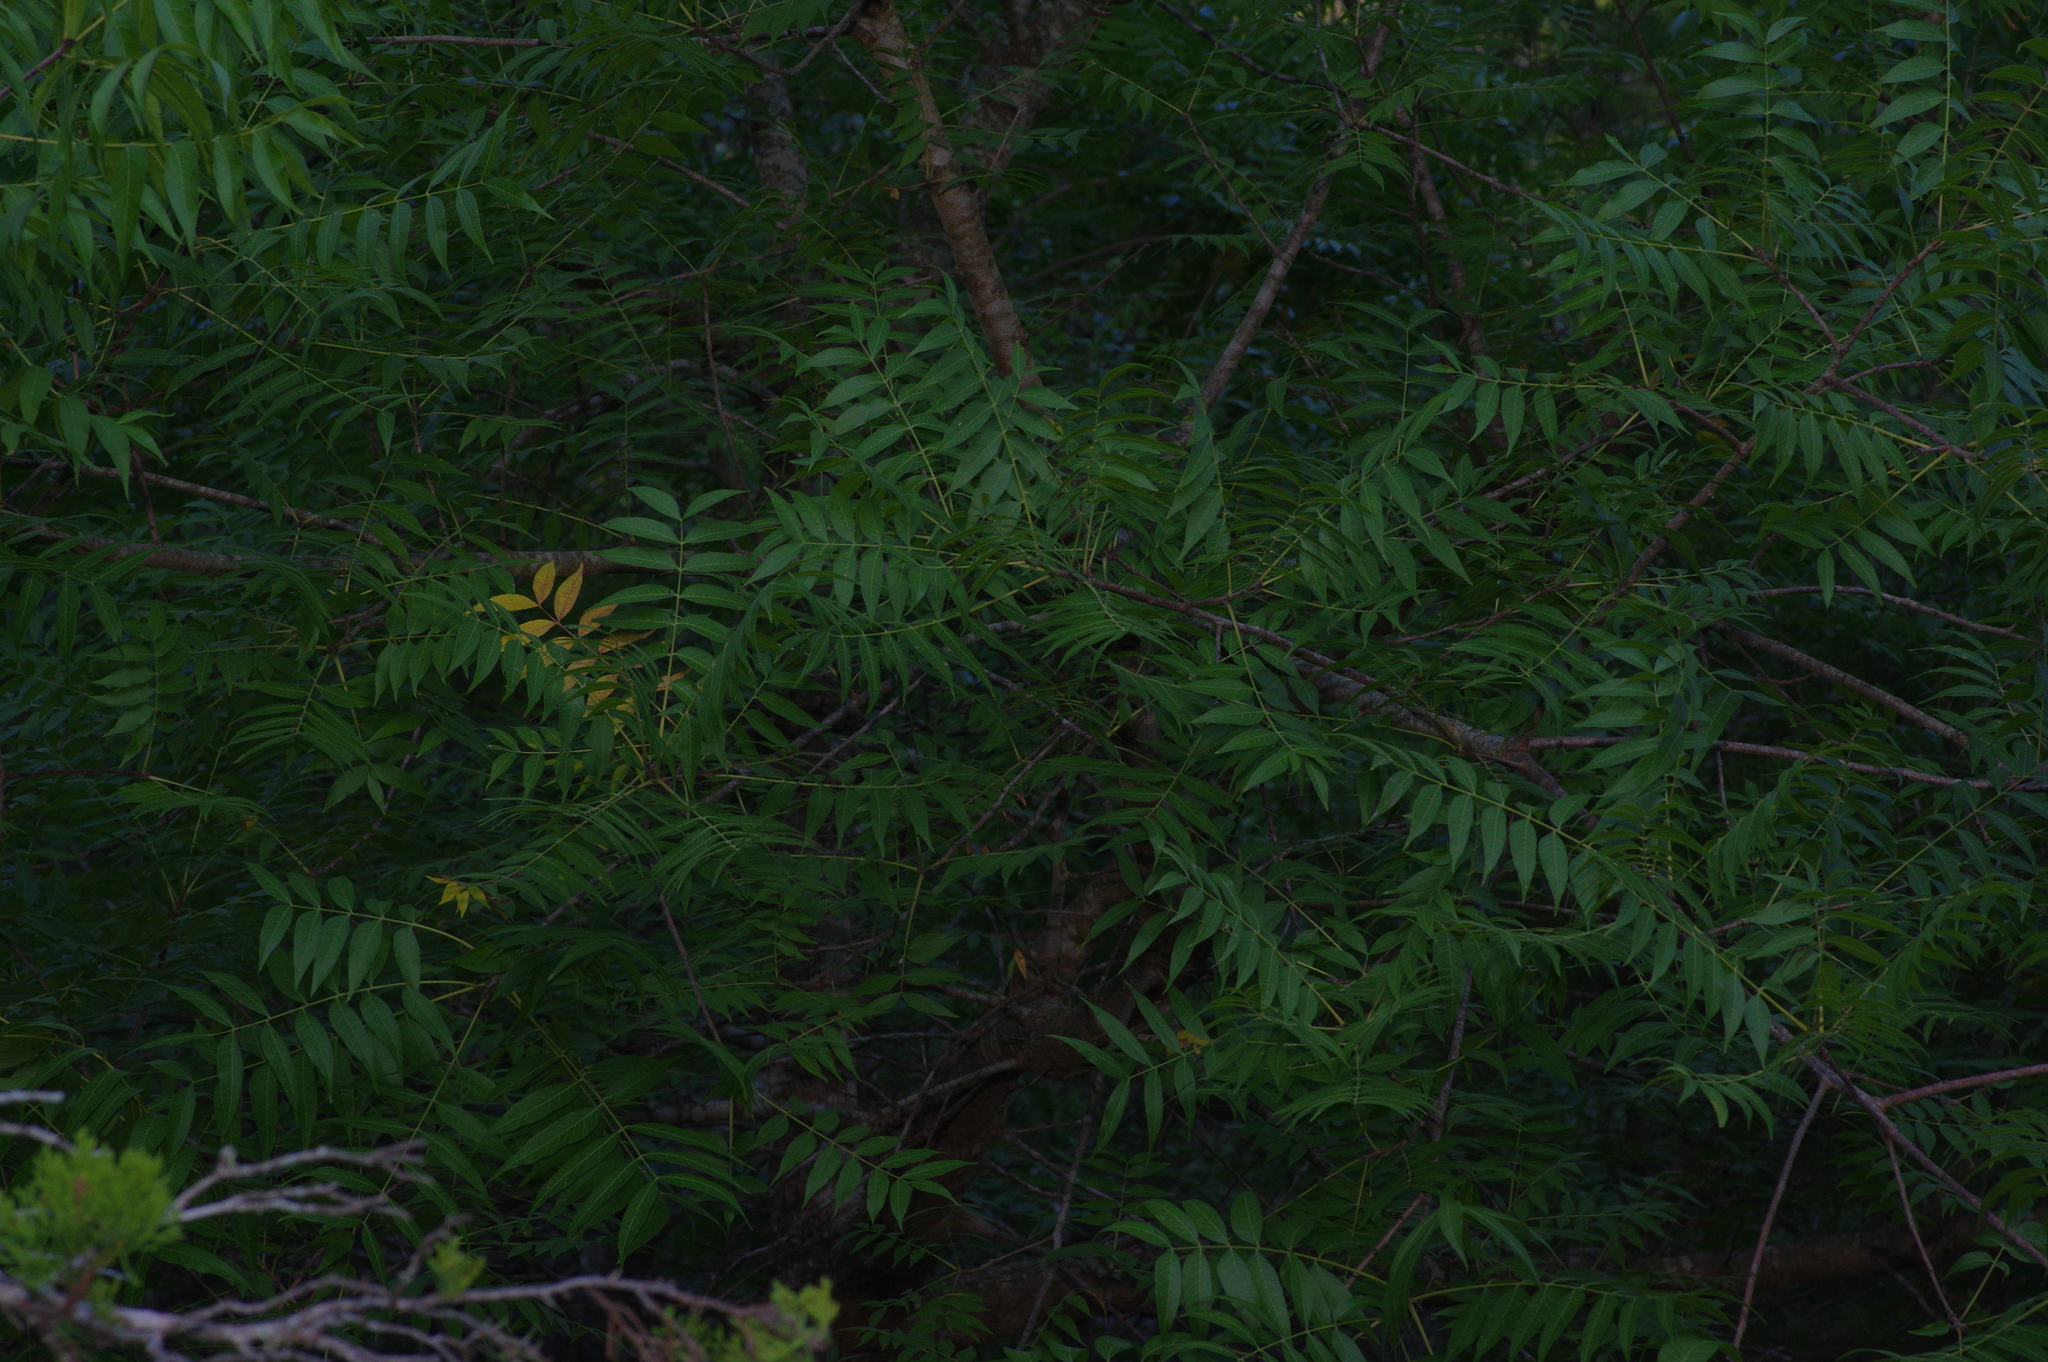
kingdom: Plantae
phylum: Tracheophyta
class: Magnoliopsida
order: Sapindales
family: Anacardiaceae
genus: Pistacia
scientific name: Pistacia chinensis
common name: Chinese pistache
